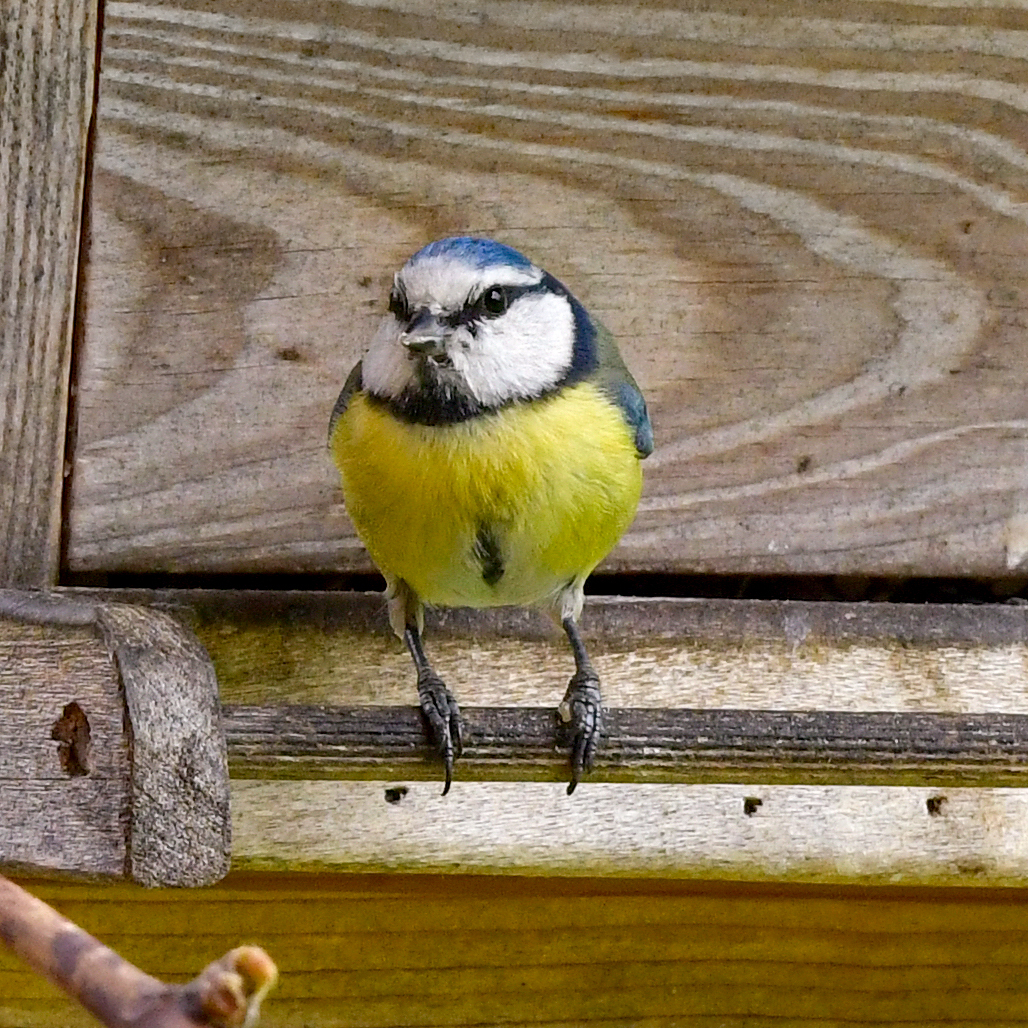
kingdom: Animalia
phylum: Chordata
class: Aves
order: Passeriformes
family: Paridae
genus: Cyanistes
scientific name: Cyanistes caeruleus
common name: Eurasian blue tit
